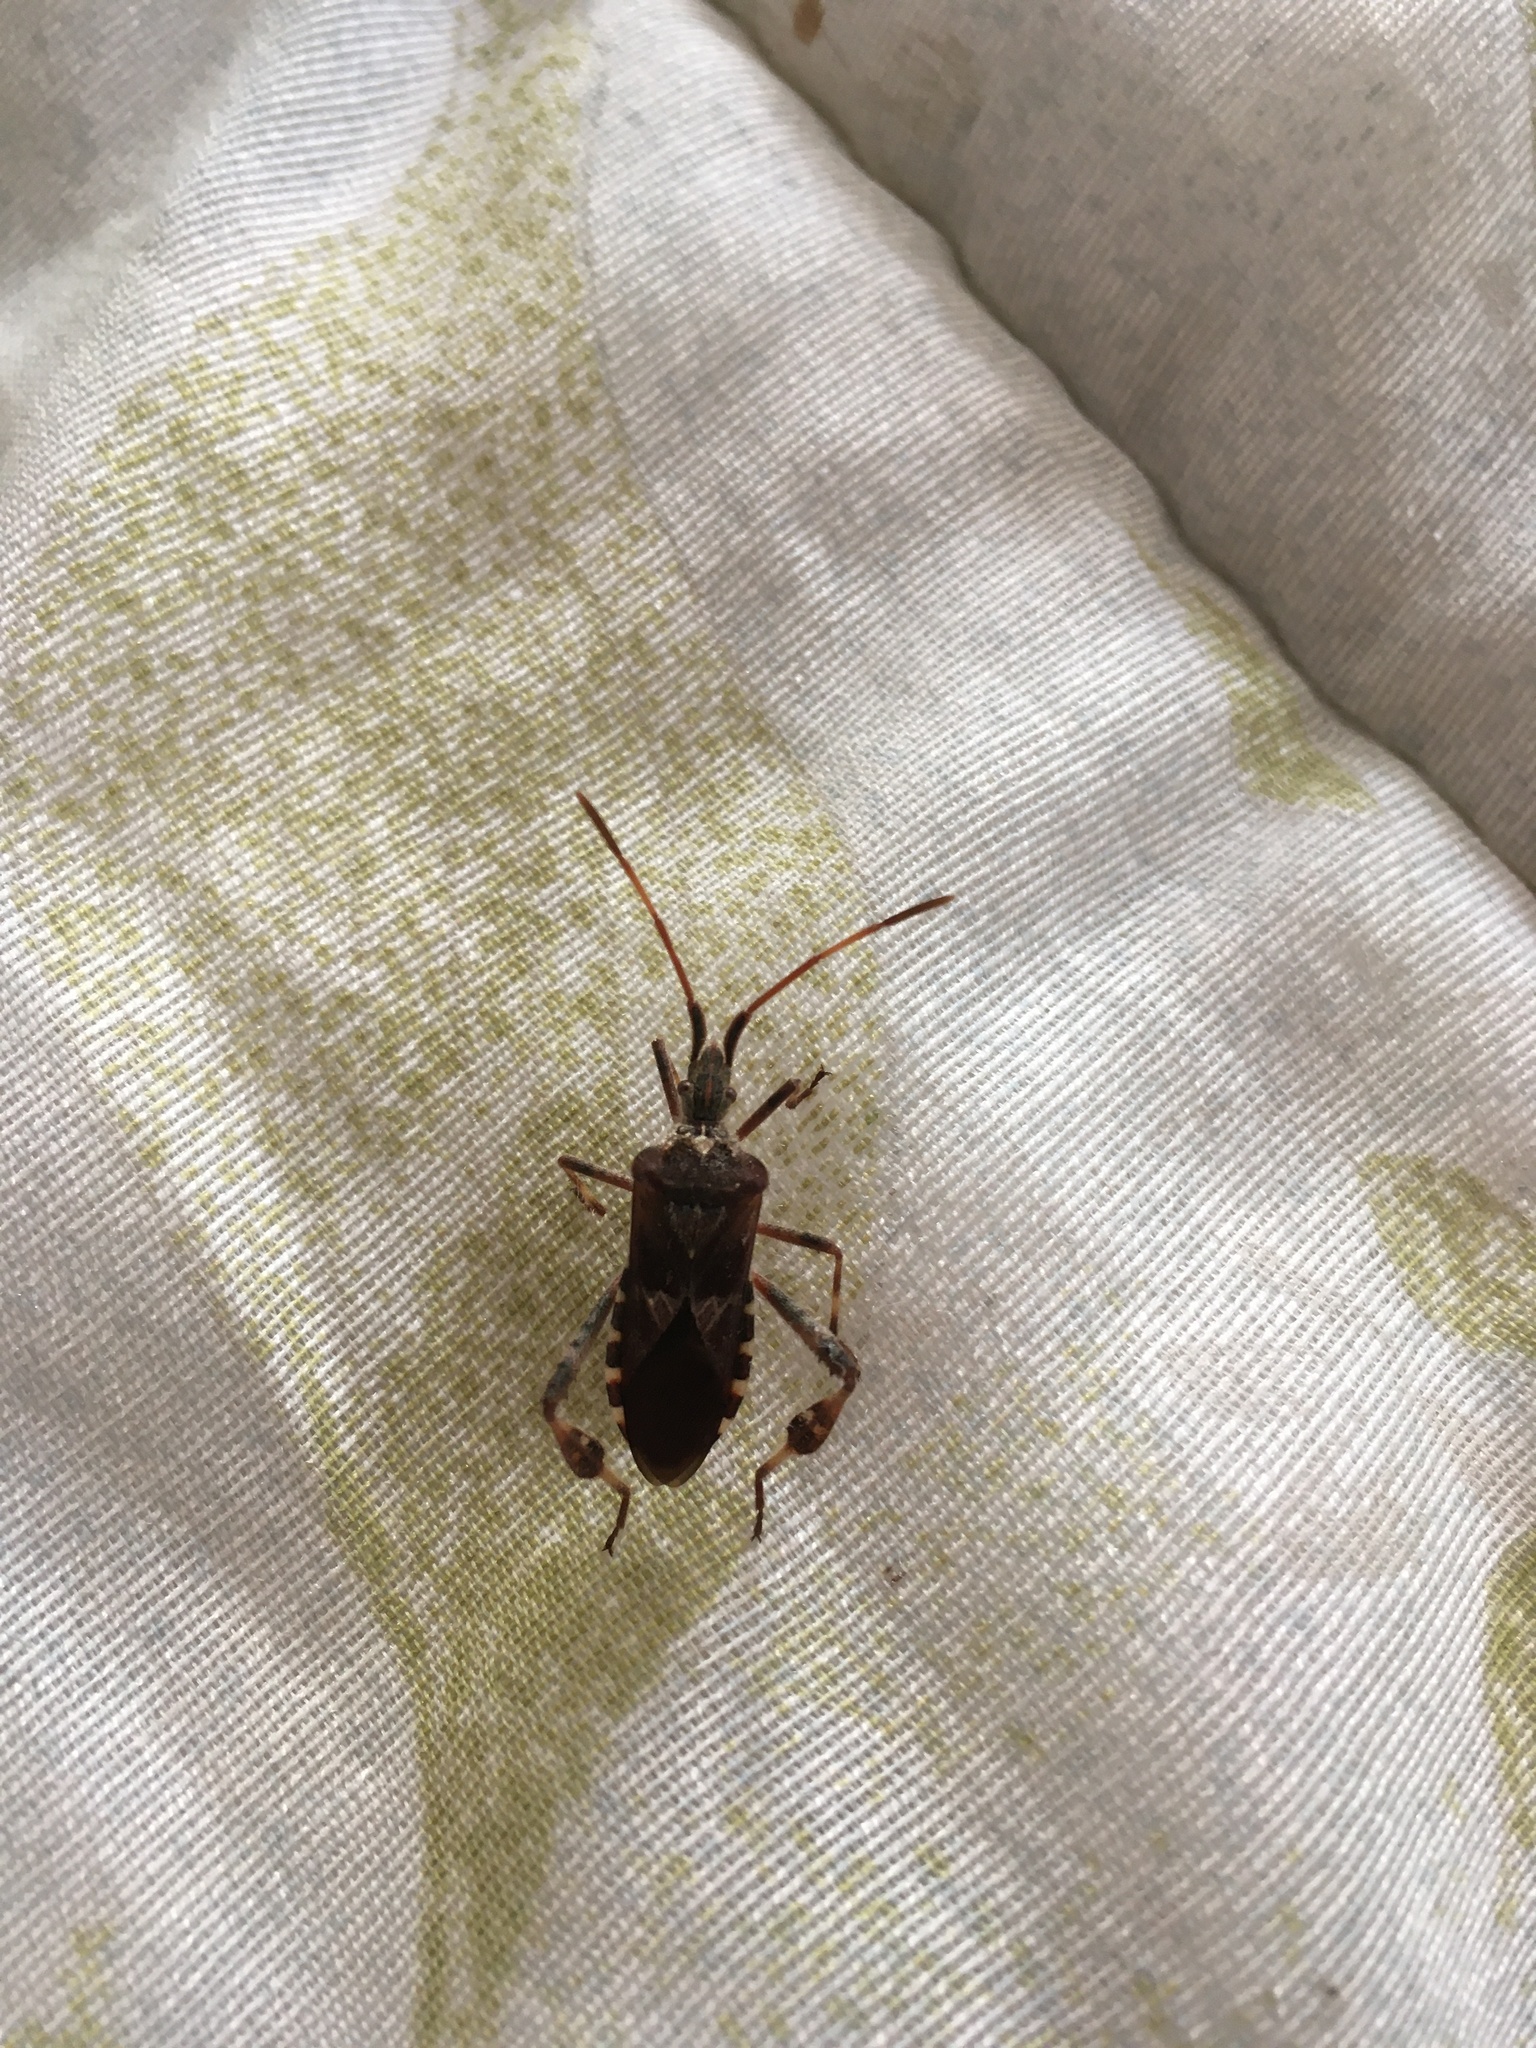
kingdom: Animalia
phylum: Arthropoda
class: Insecta
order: Hemiptera
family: Coreidae
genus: Leptoglossus
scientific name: Leptoglossus occidentalis
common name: Western conifer-seed bug
